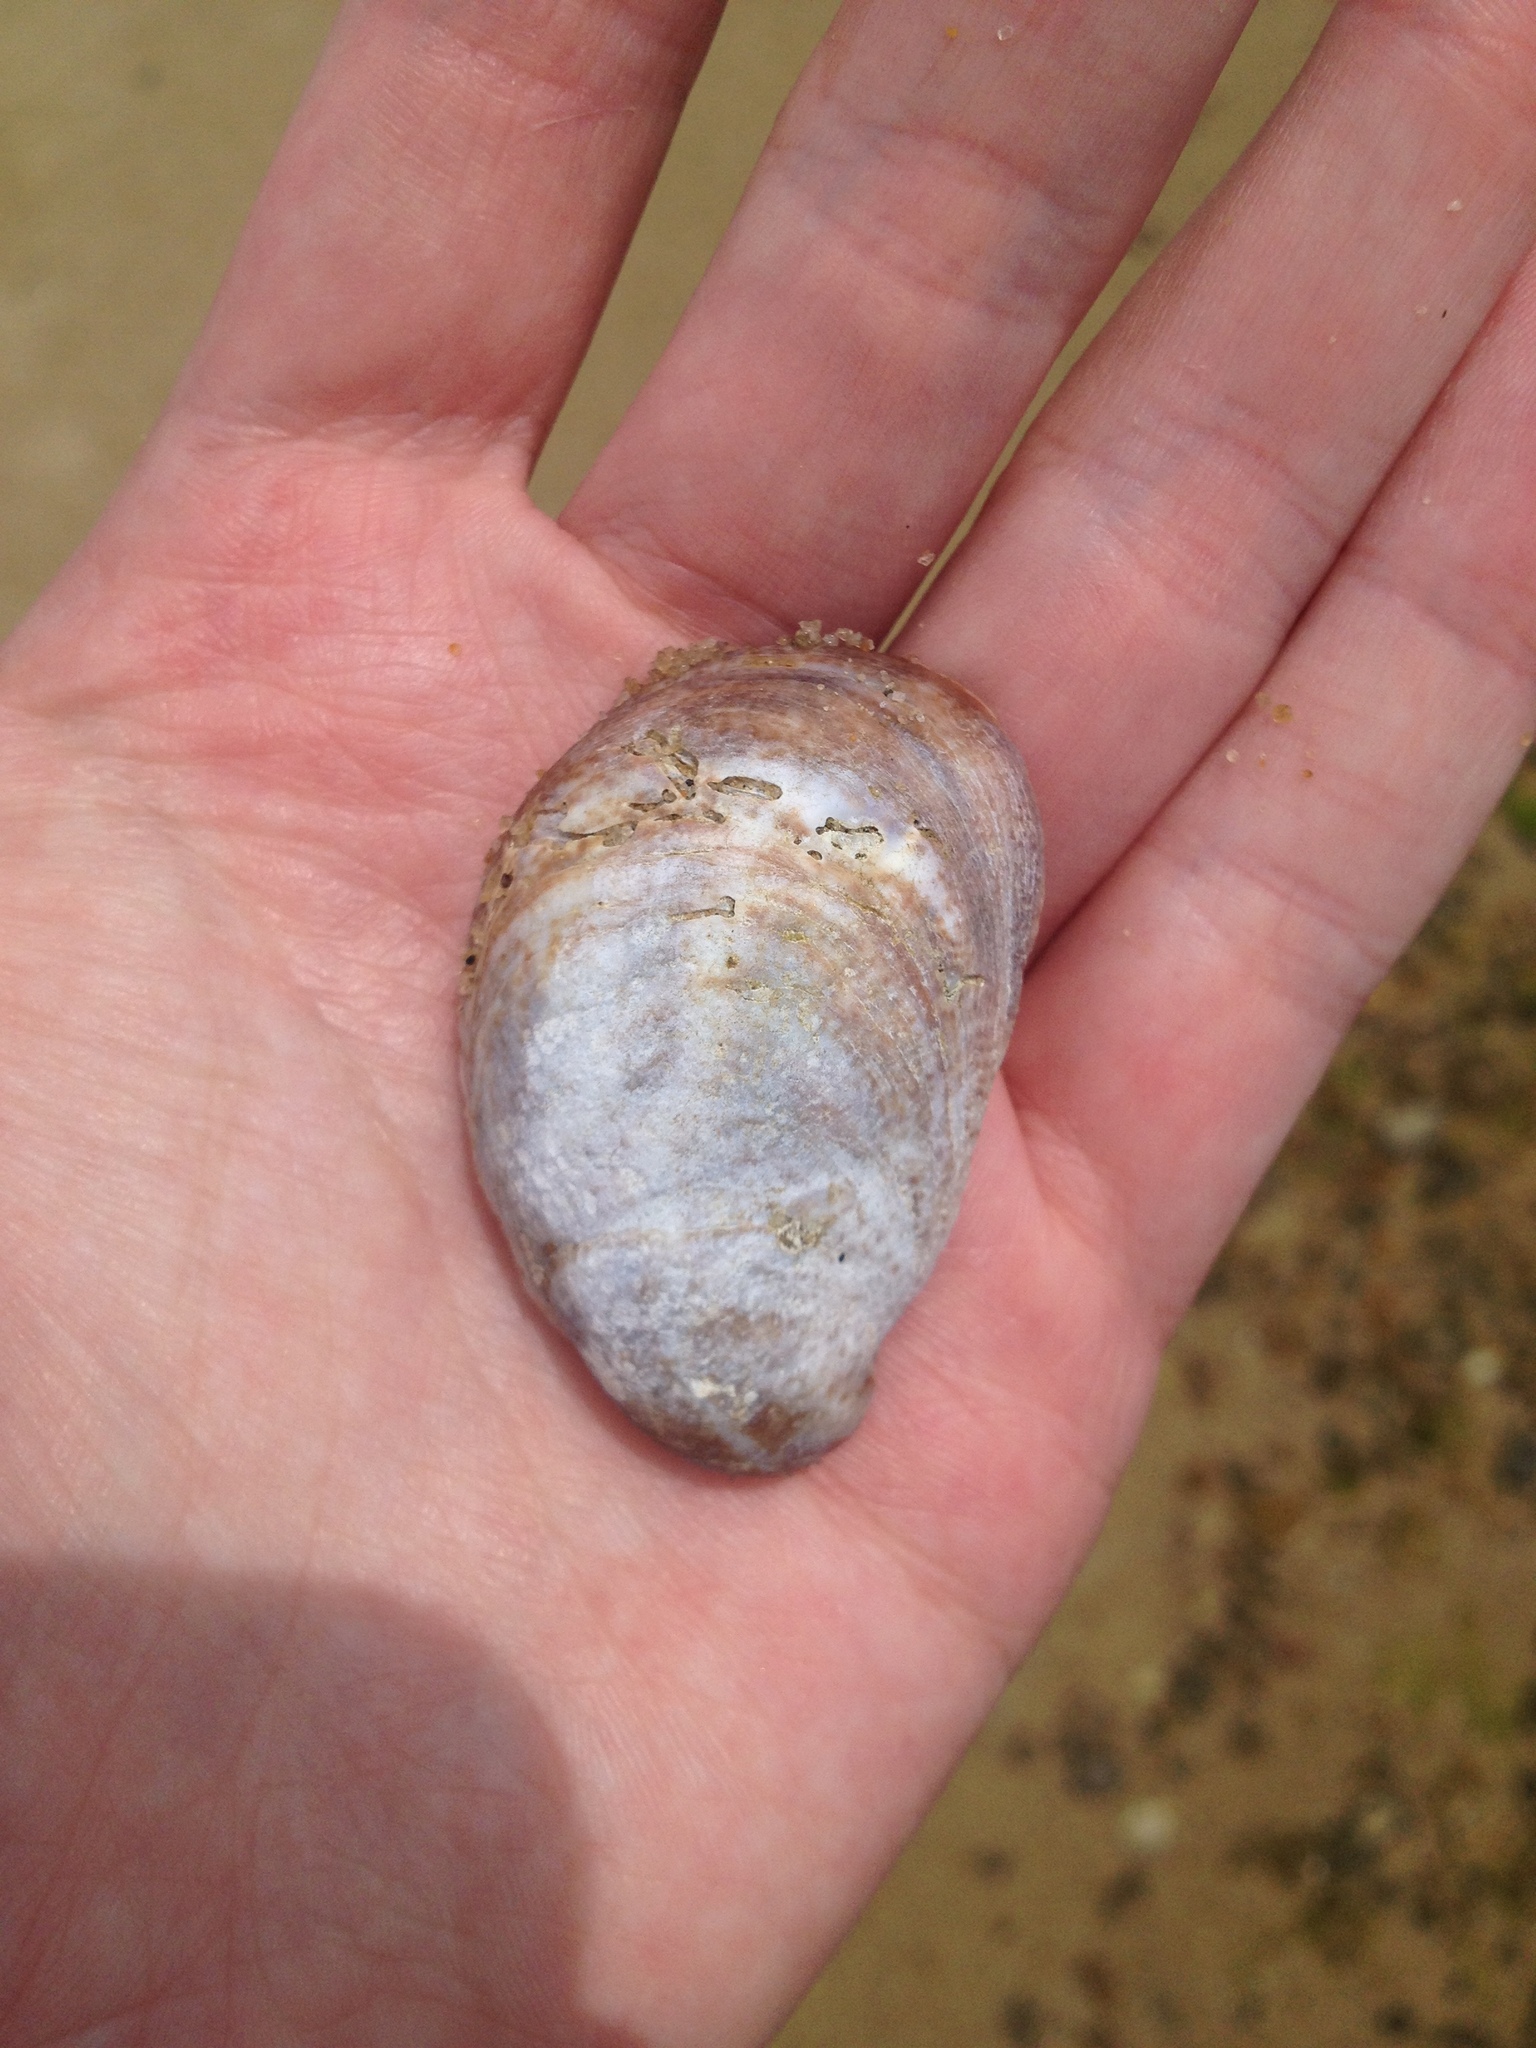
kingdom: Animalia
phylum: Mollusca
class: Gastropoda
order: Littorinimorpha
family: Calyptraeidae
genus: Crepidula
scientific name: Crepidula fornicata
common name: Slipper limpet
